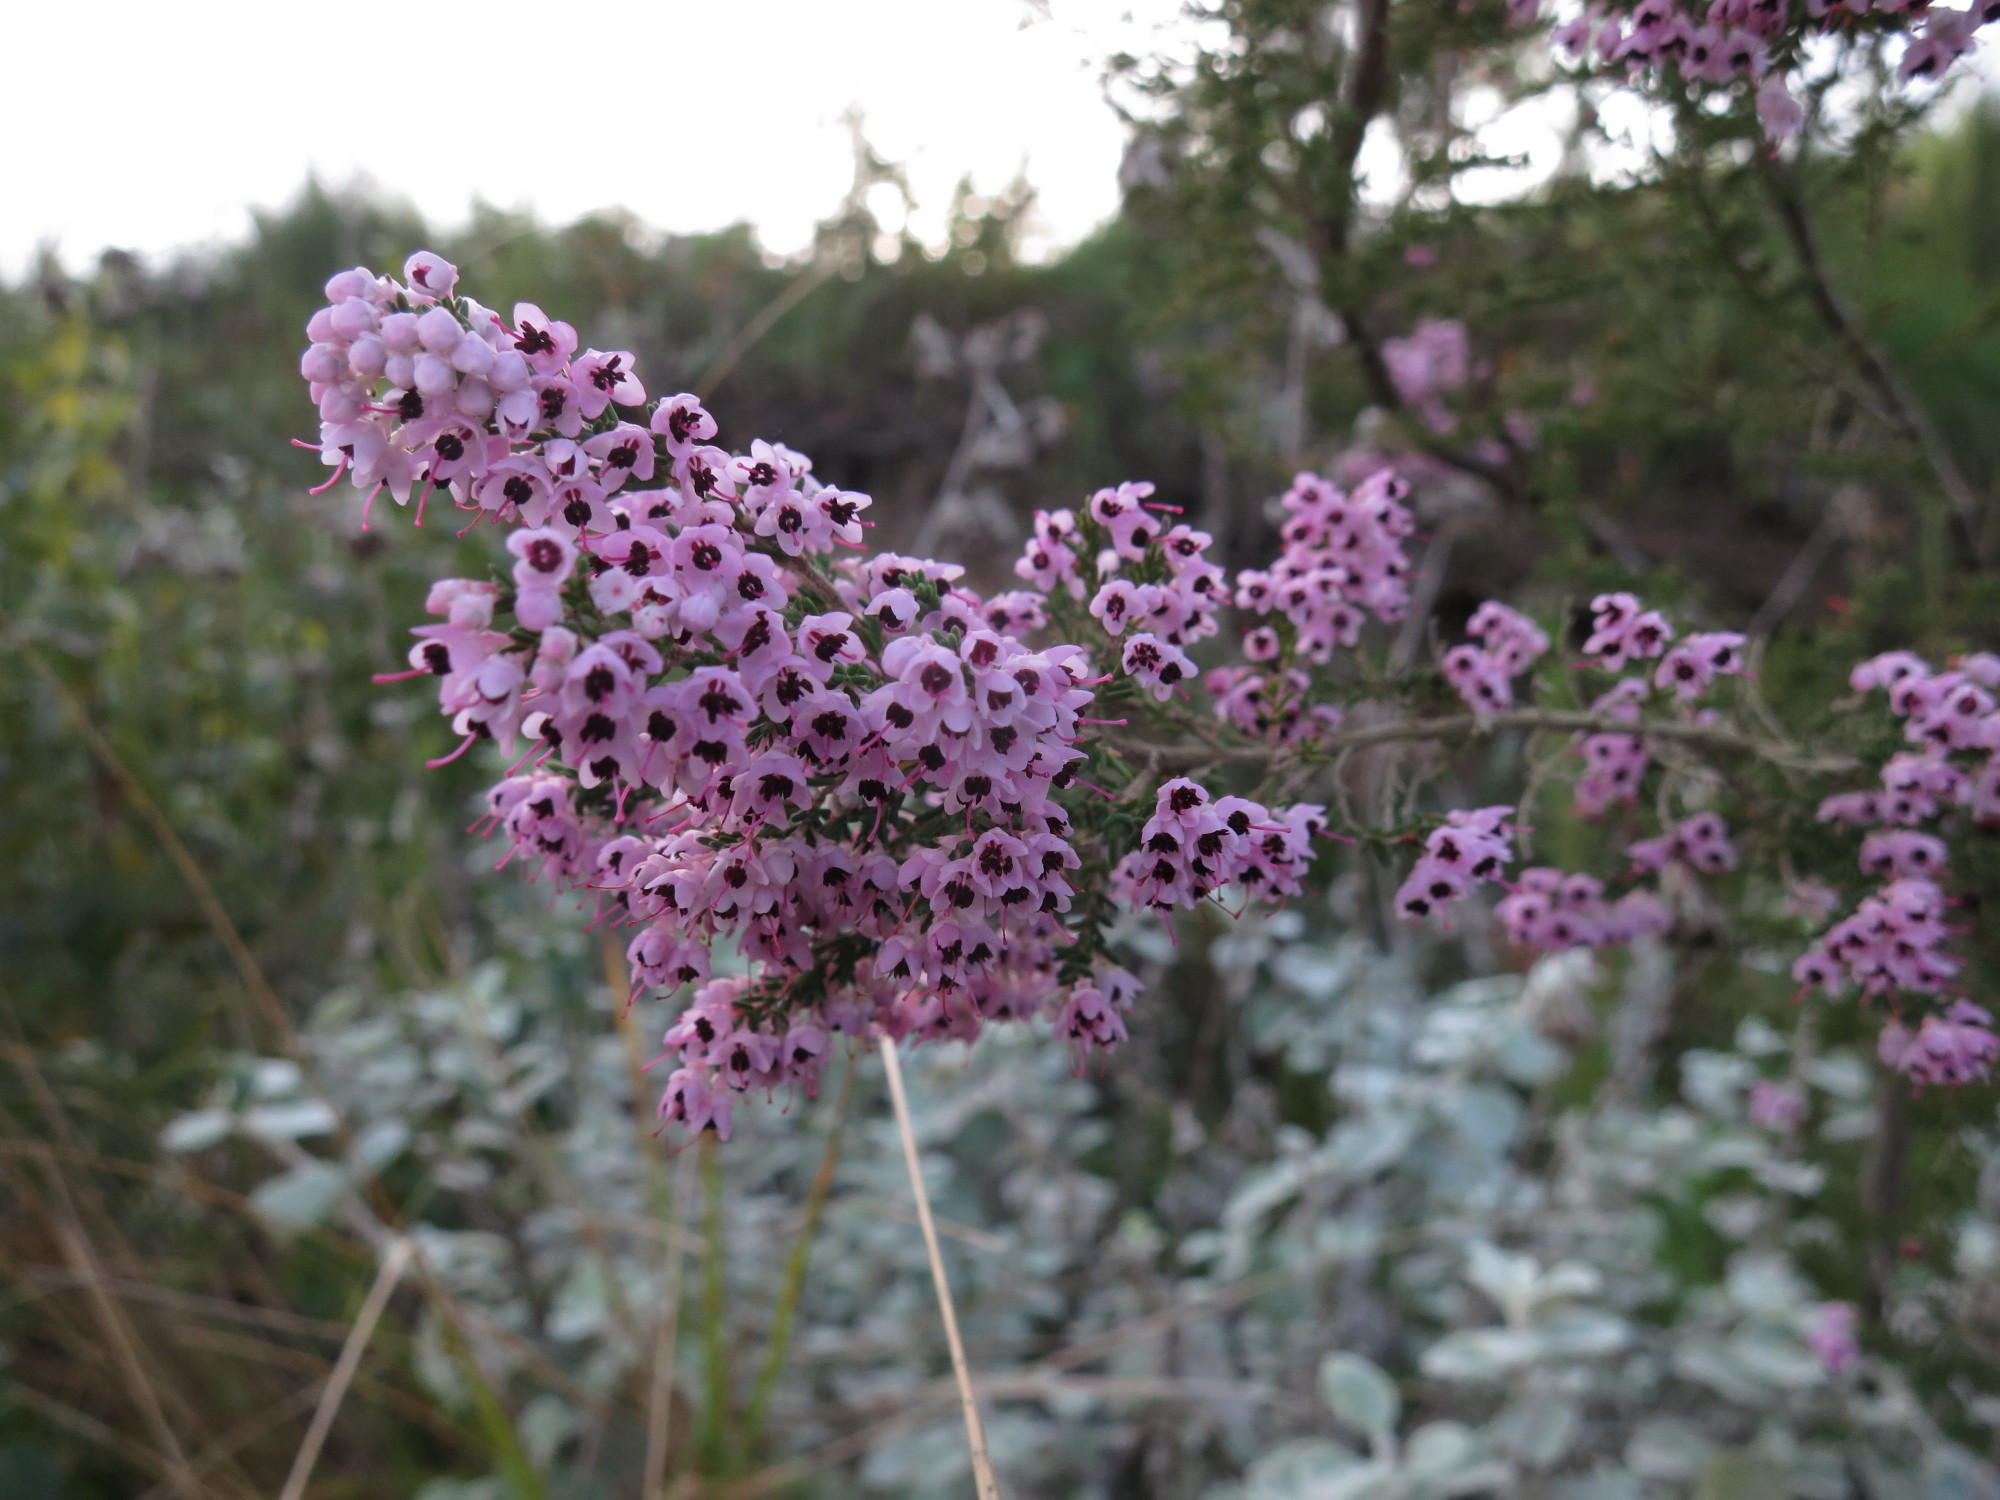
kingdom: Plantae
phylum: Tracheophyta
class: Magnoliopsida
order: Ericales
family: Ericaceae
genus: Erica
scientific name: Erica canaliculata
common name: Hairy grey heather
